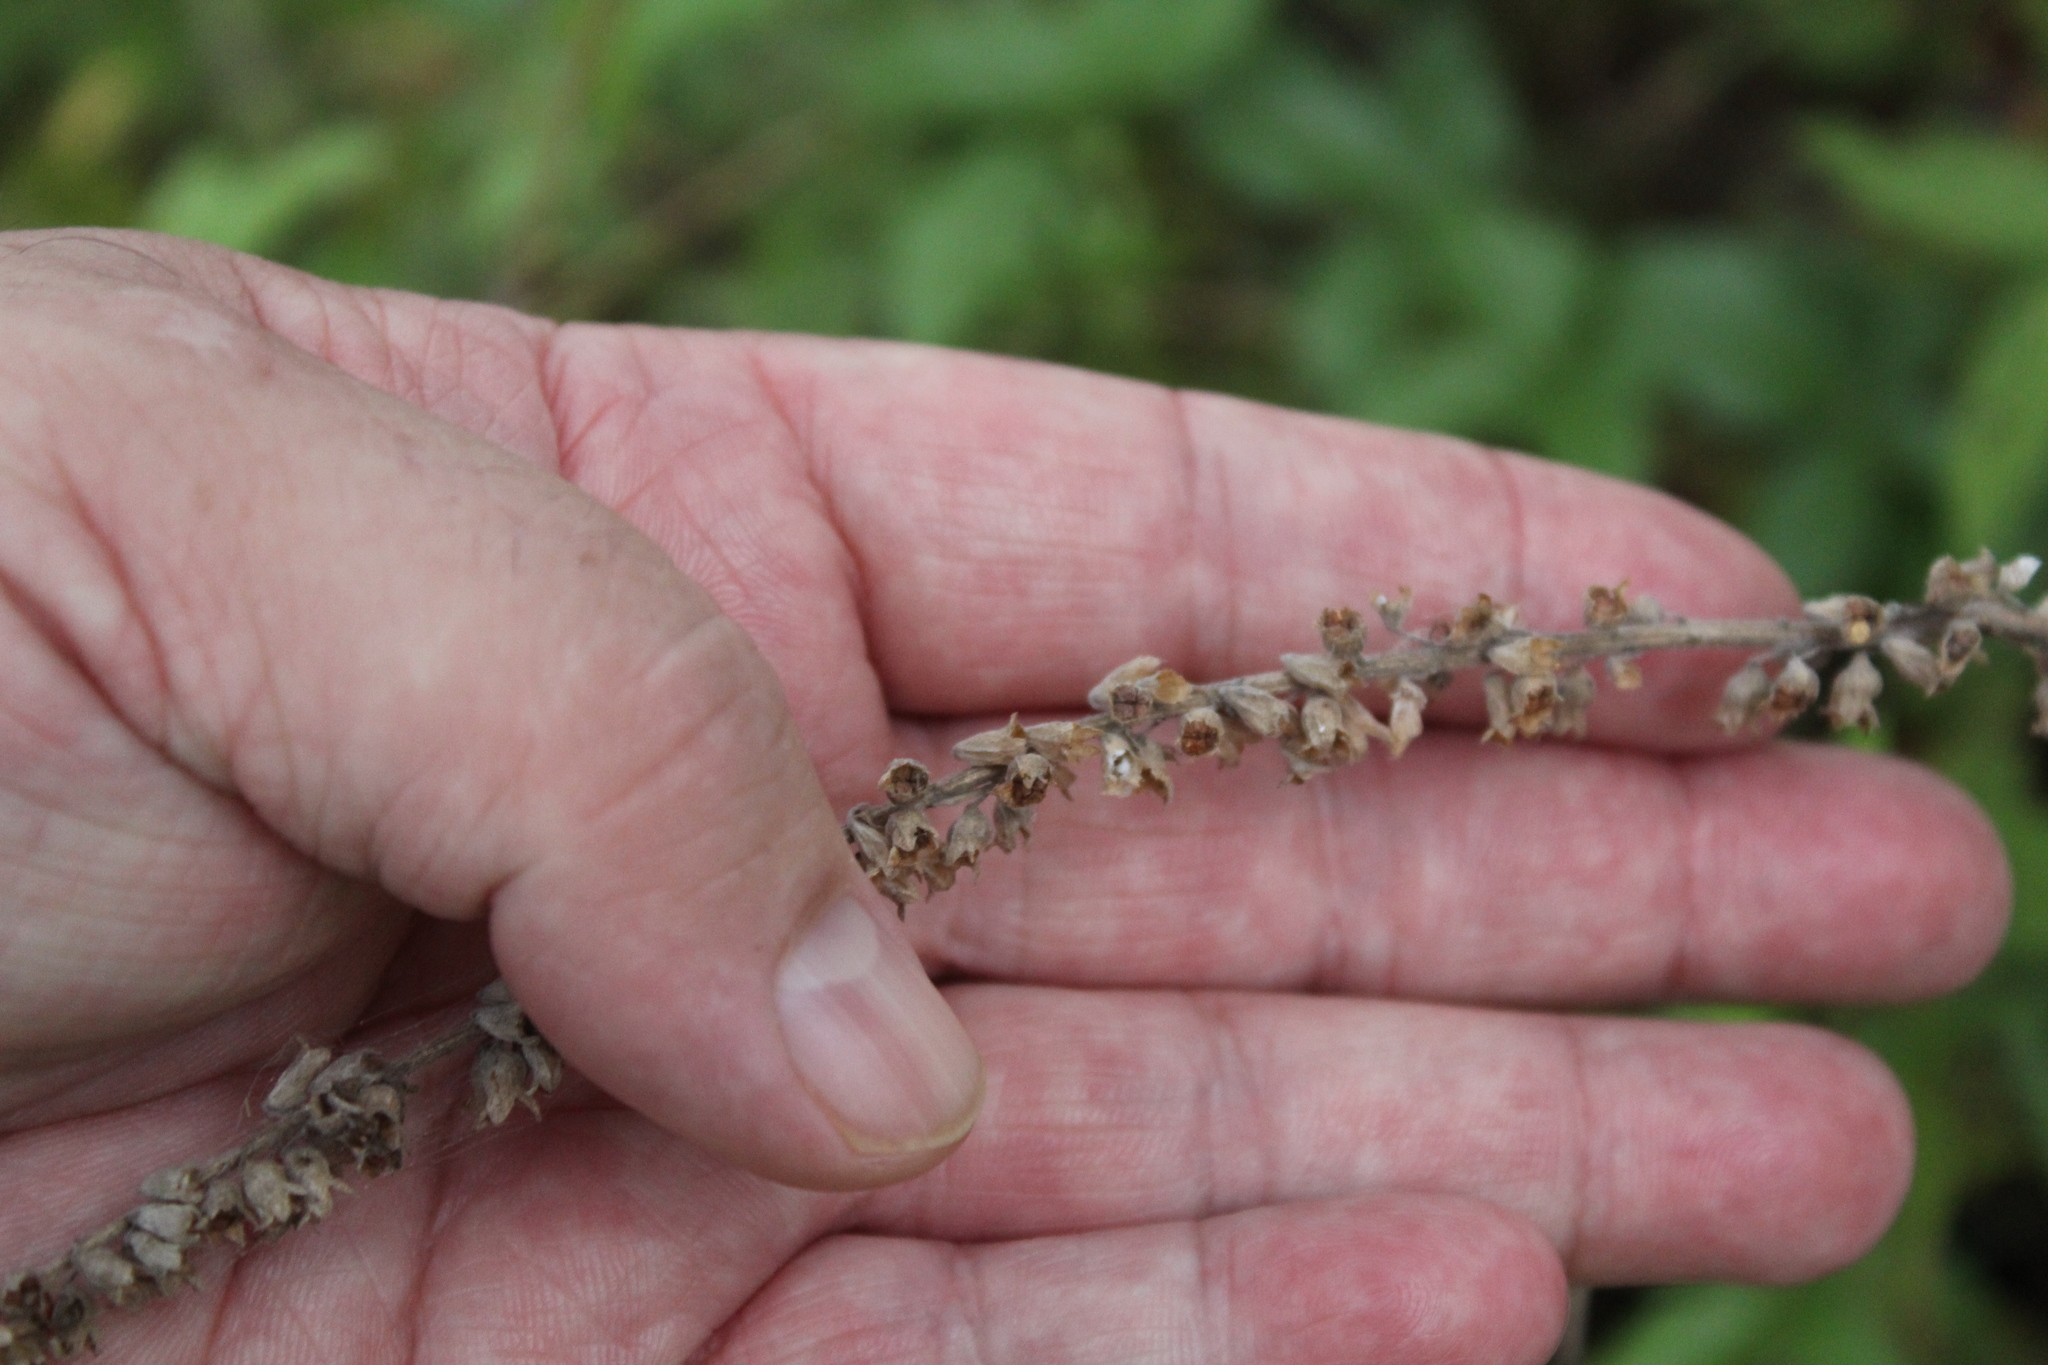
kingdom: Plantae
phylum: Tracheophyta
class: Magnoliopsida
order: Lamiales
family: Lamiaceae
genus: Teucrium
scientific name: Teucrium canadense
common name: American germander
